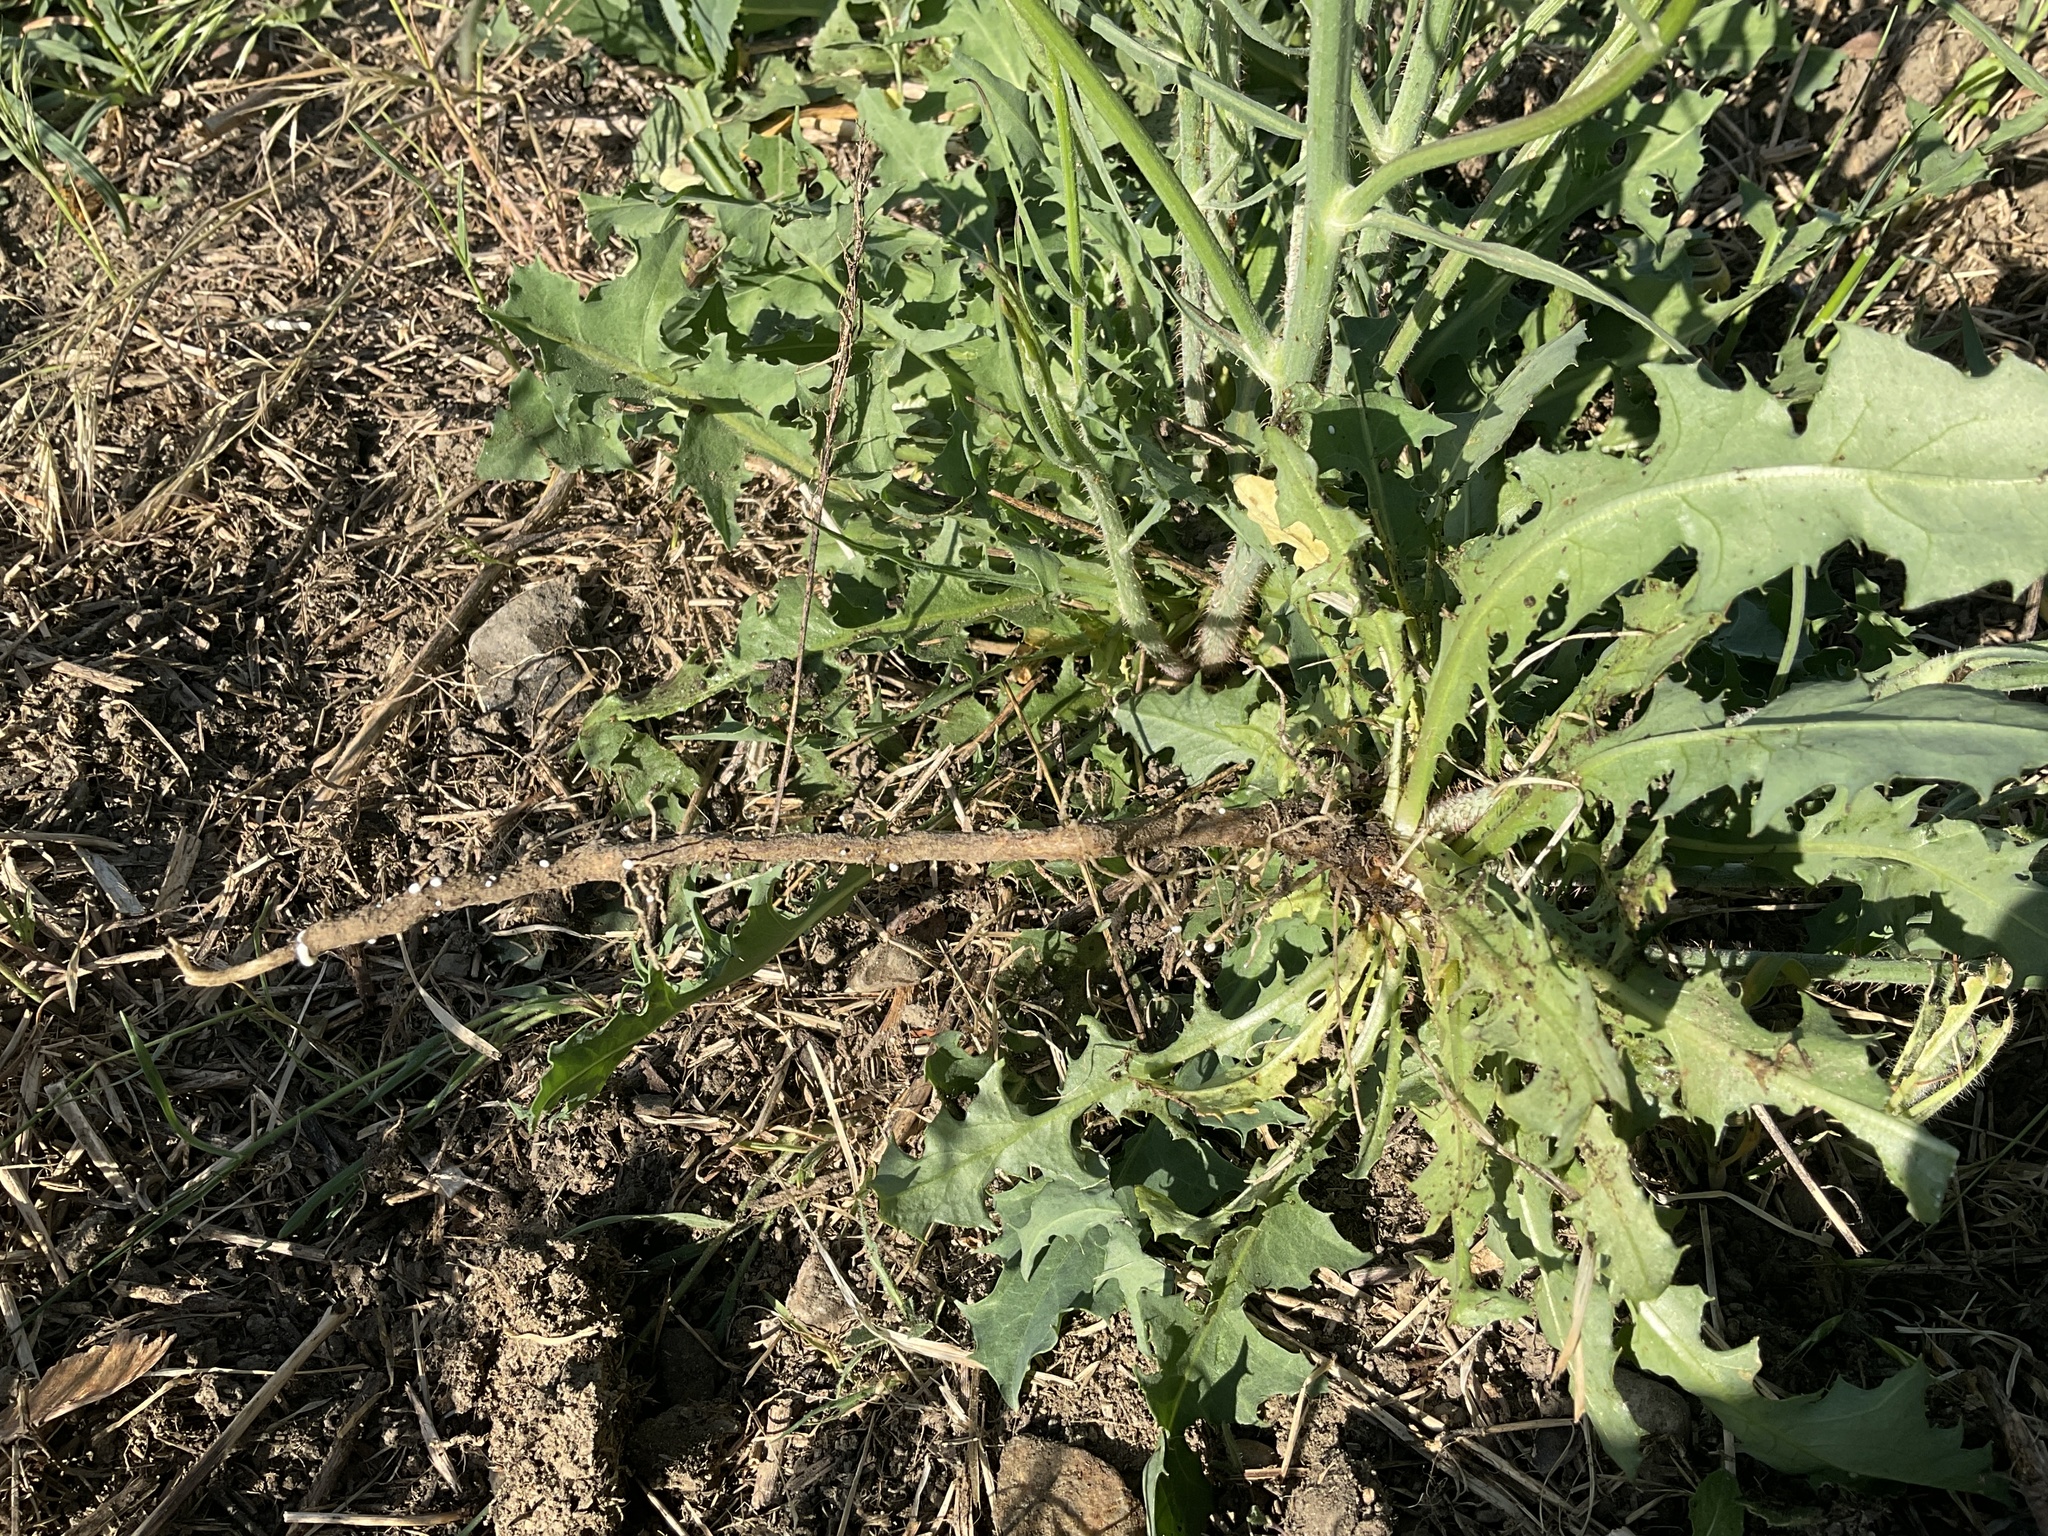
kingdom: Plantae
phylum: Tracheophyta
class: Magnoliopsida
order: Asterales
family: Asteraceae
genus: Chondrilla
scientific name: Chondrilla juncea
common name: Skeleton weed
